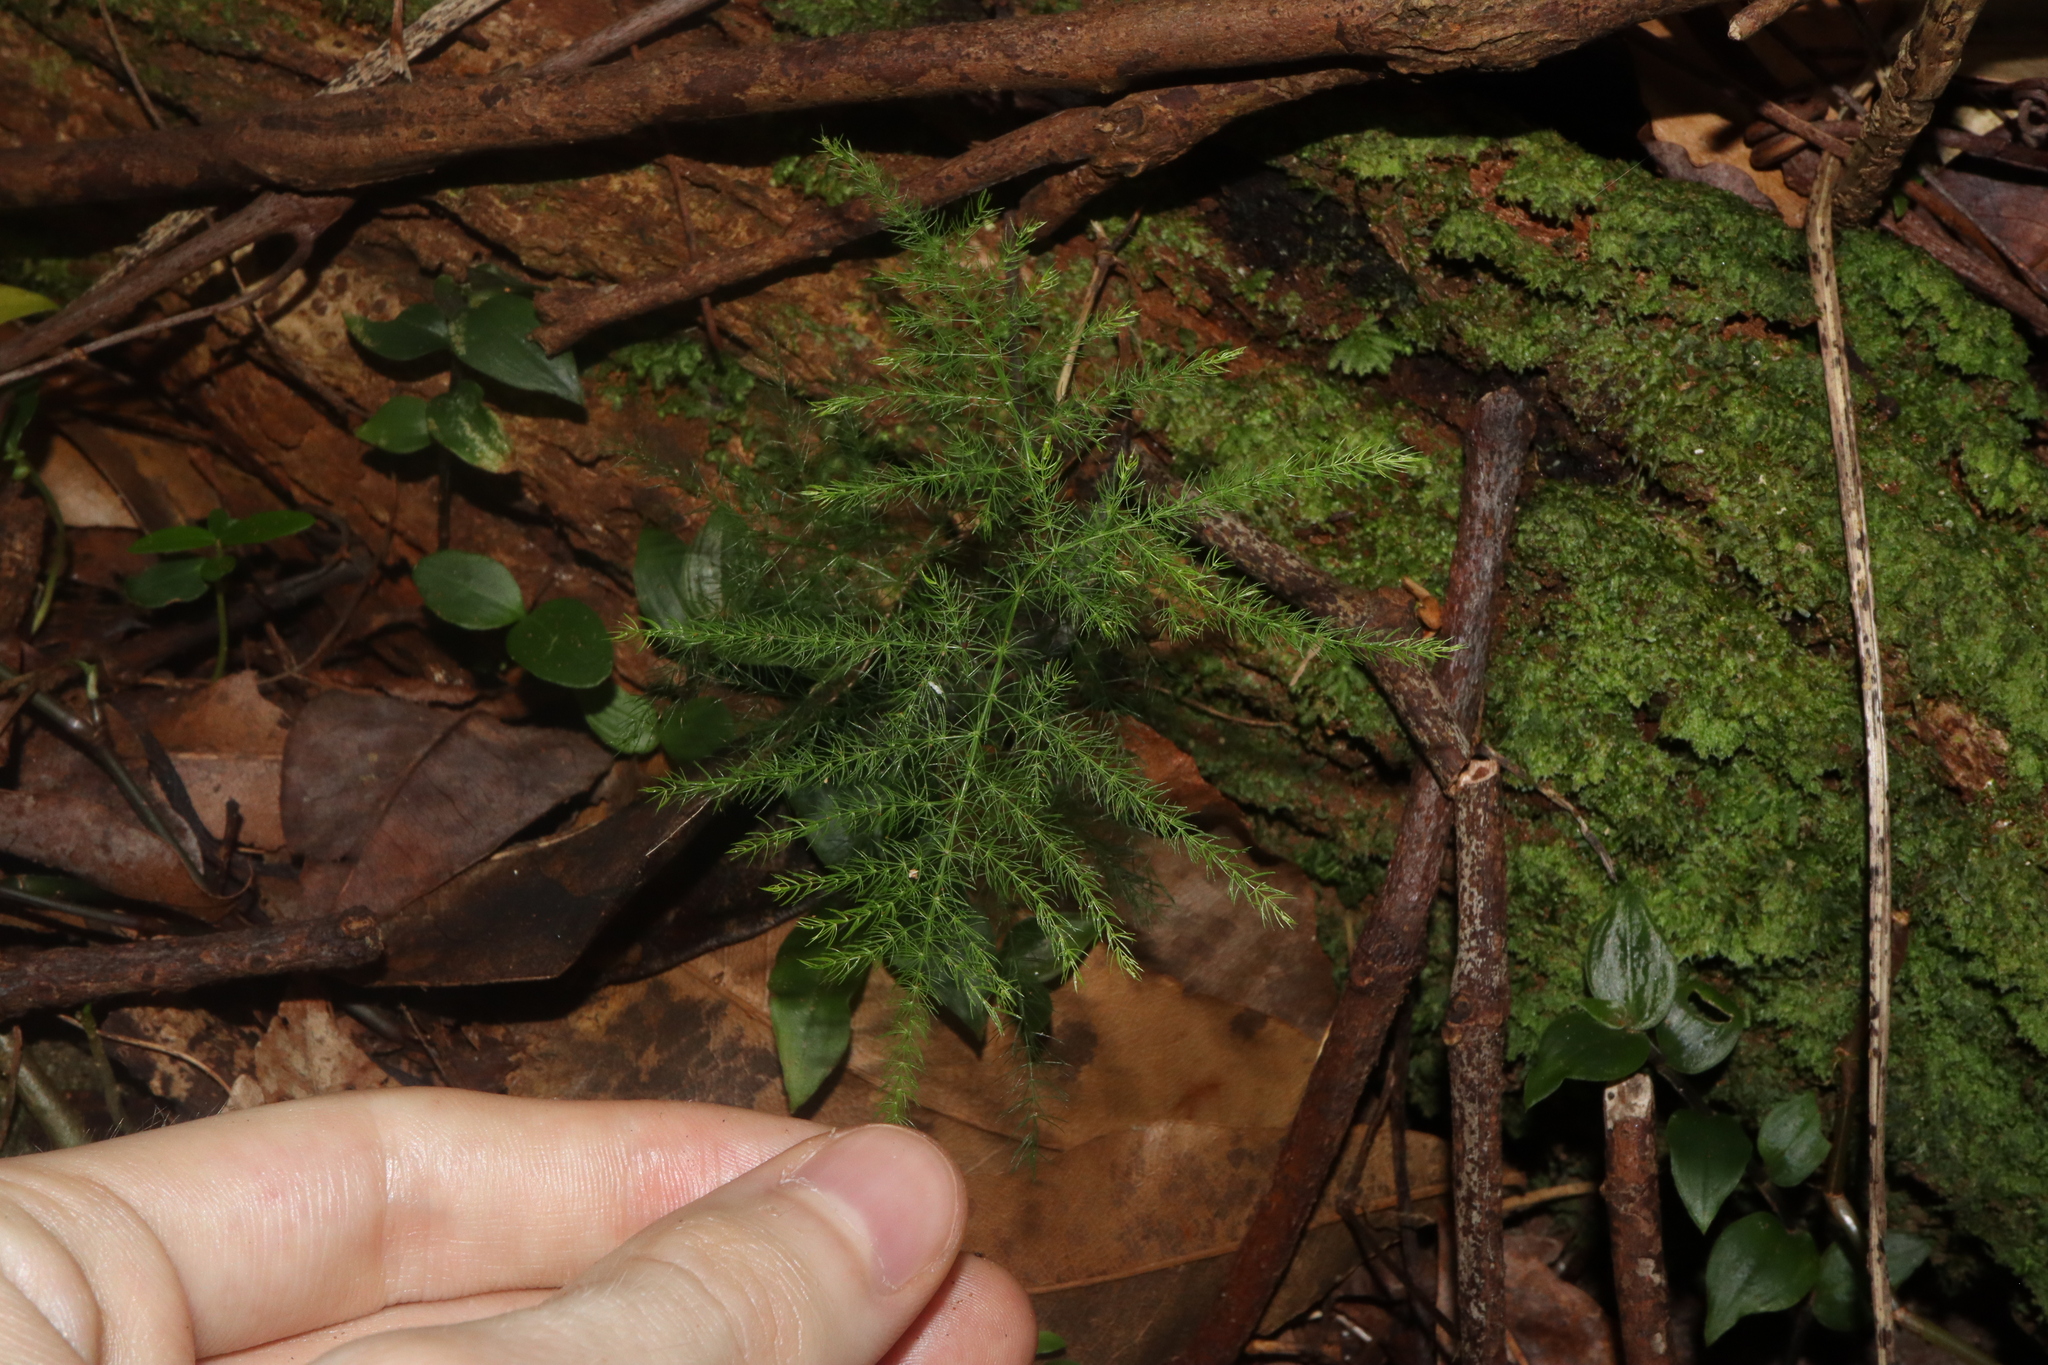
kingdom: Plantae
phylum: Tracheophyta
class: Liliopsida
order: Asparagales
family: Asparagaceae
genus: Asparagus
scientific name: Asparagus setaceus
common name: Common asparagus fern
